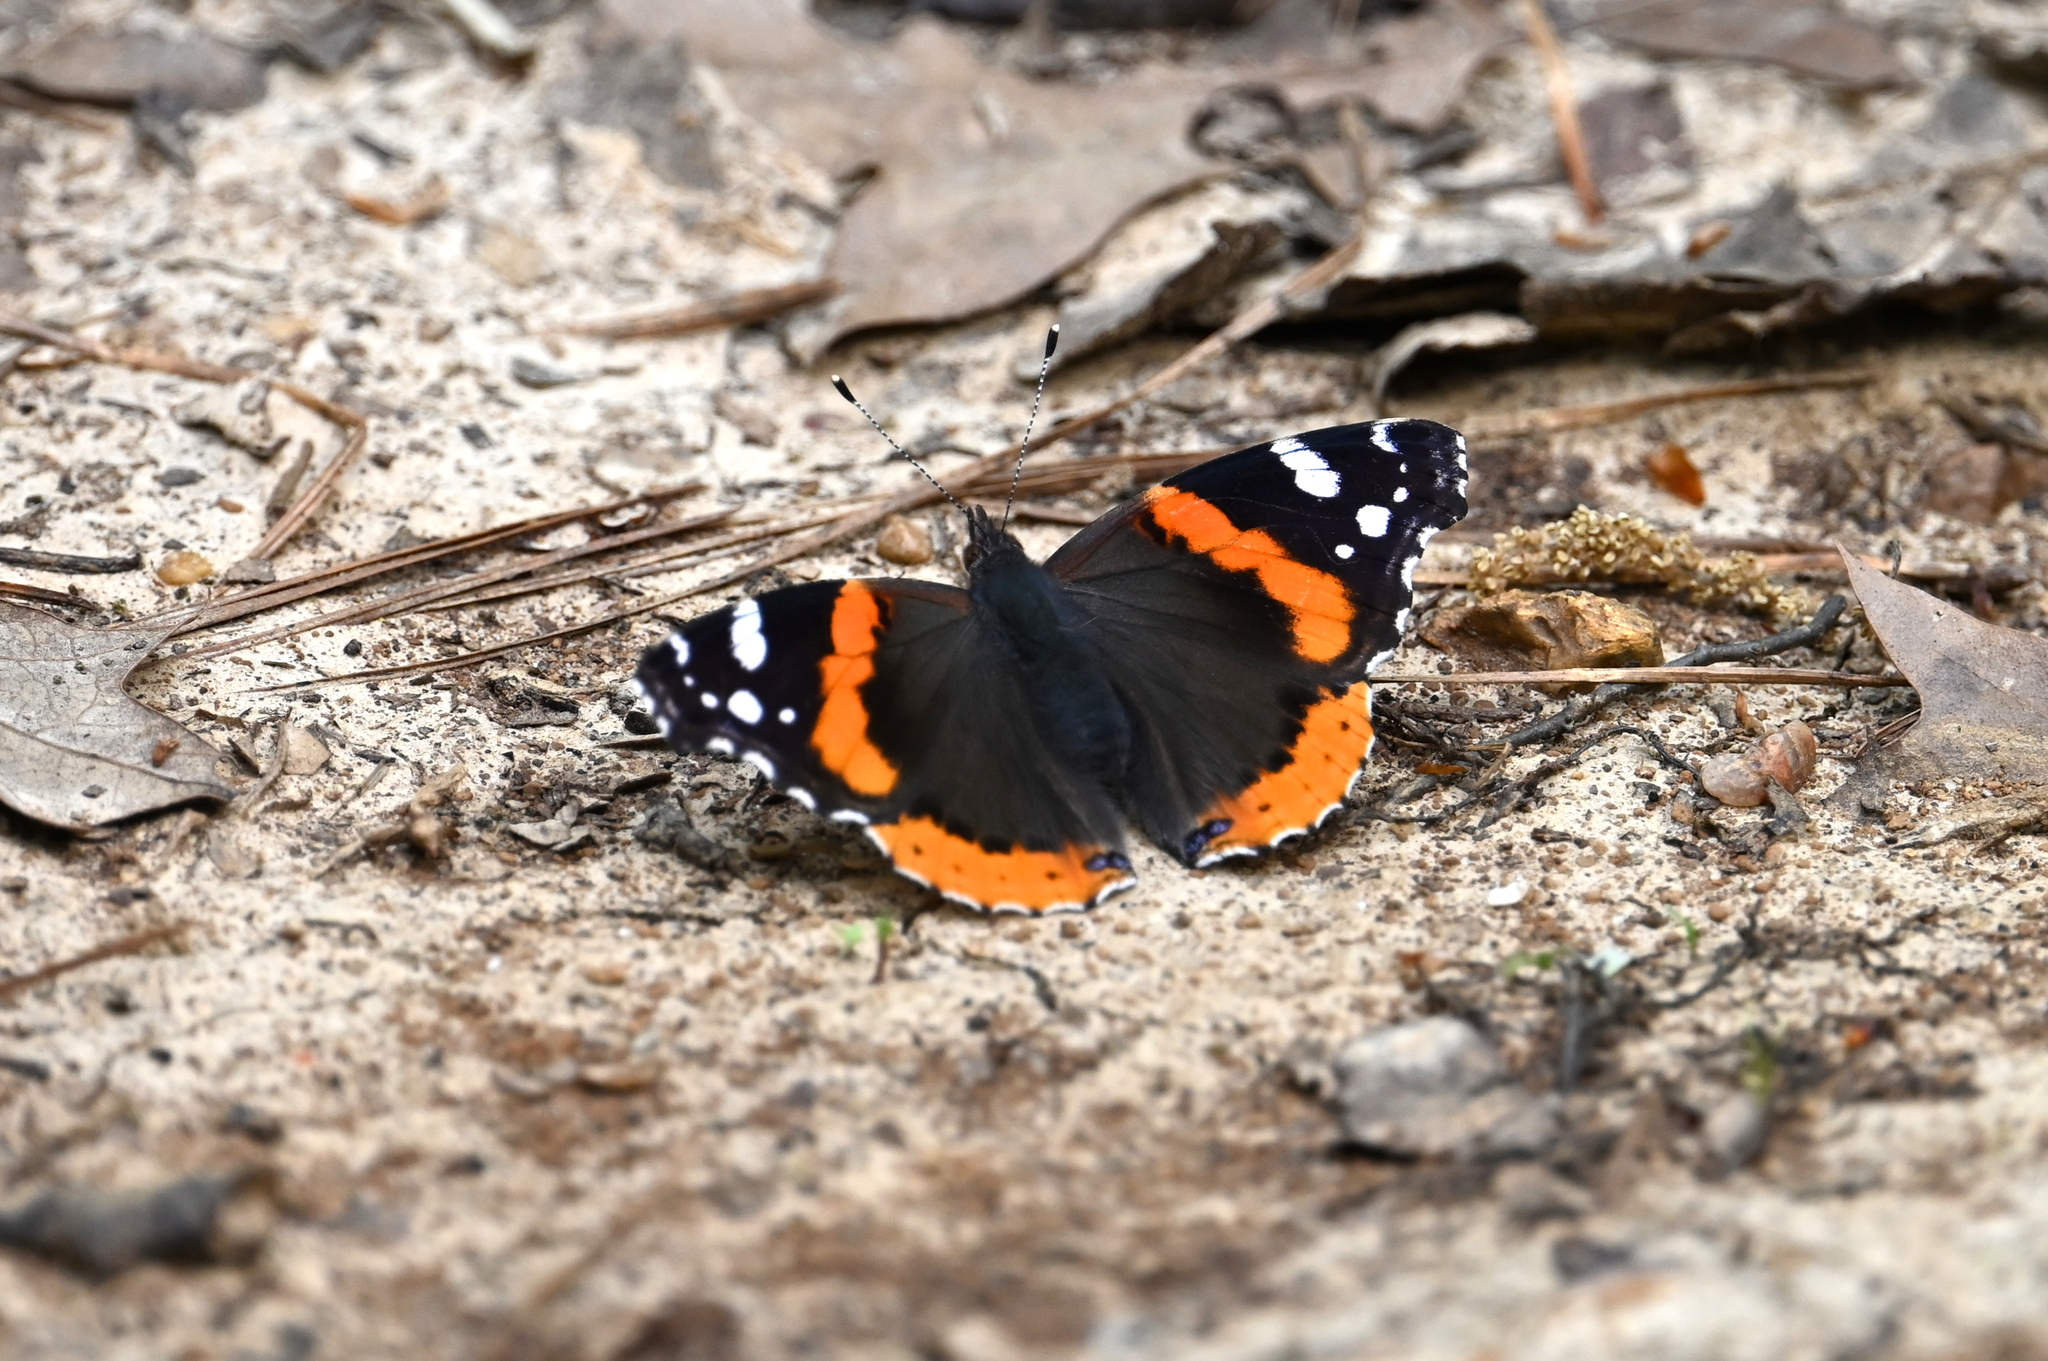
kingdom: Animalia
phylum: Arthropoda
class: Insecta
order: Lepidoptera
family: Nymphalidae
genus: Vanessa
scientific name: Vanessa atalanta
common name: Red admiral
